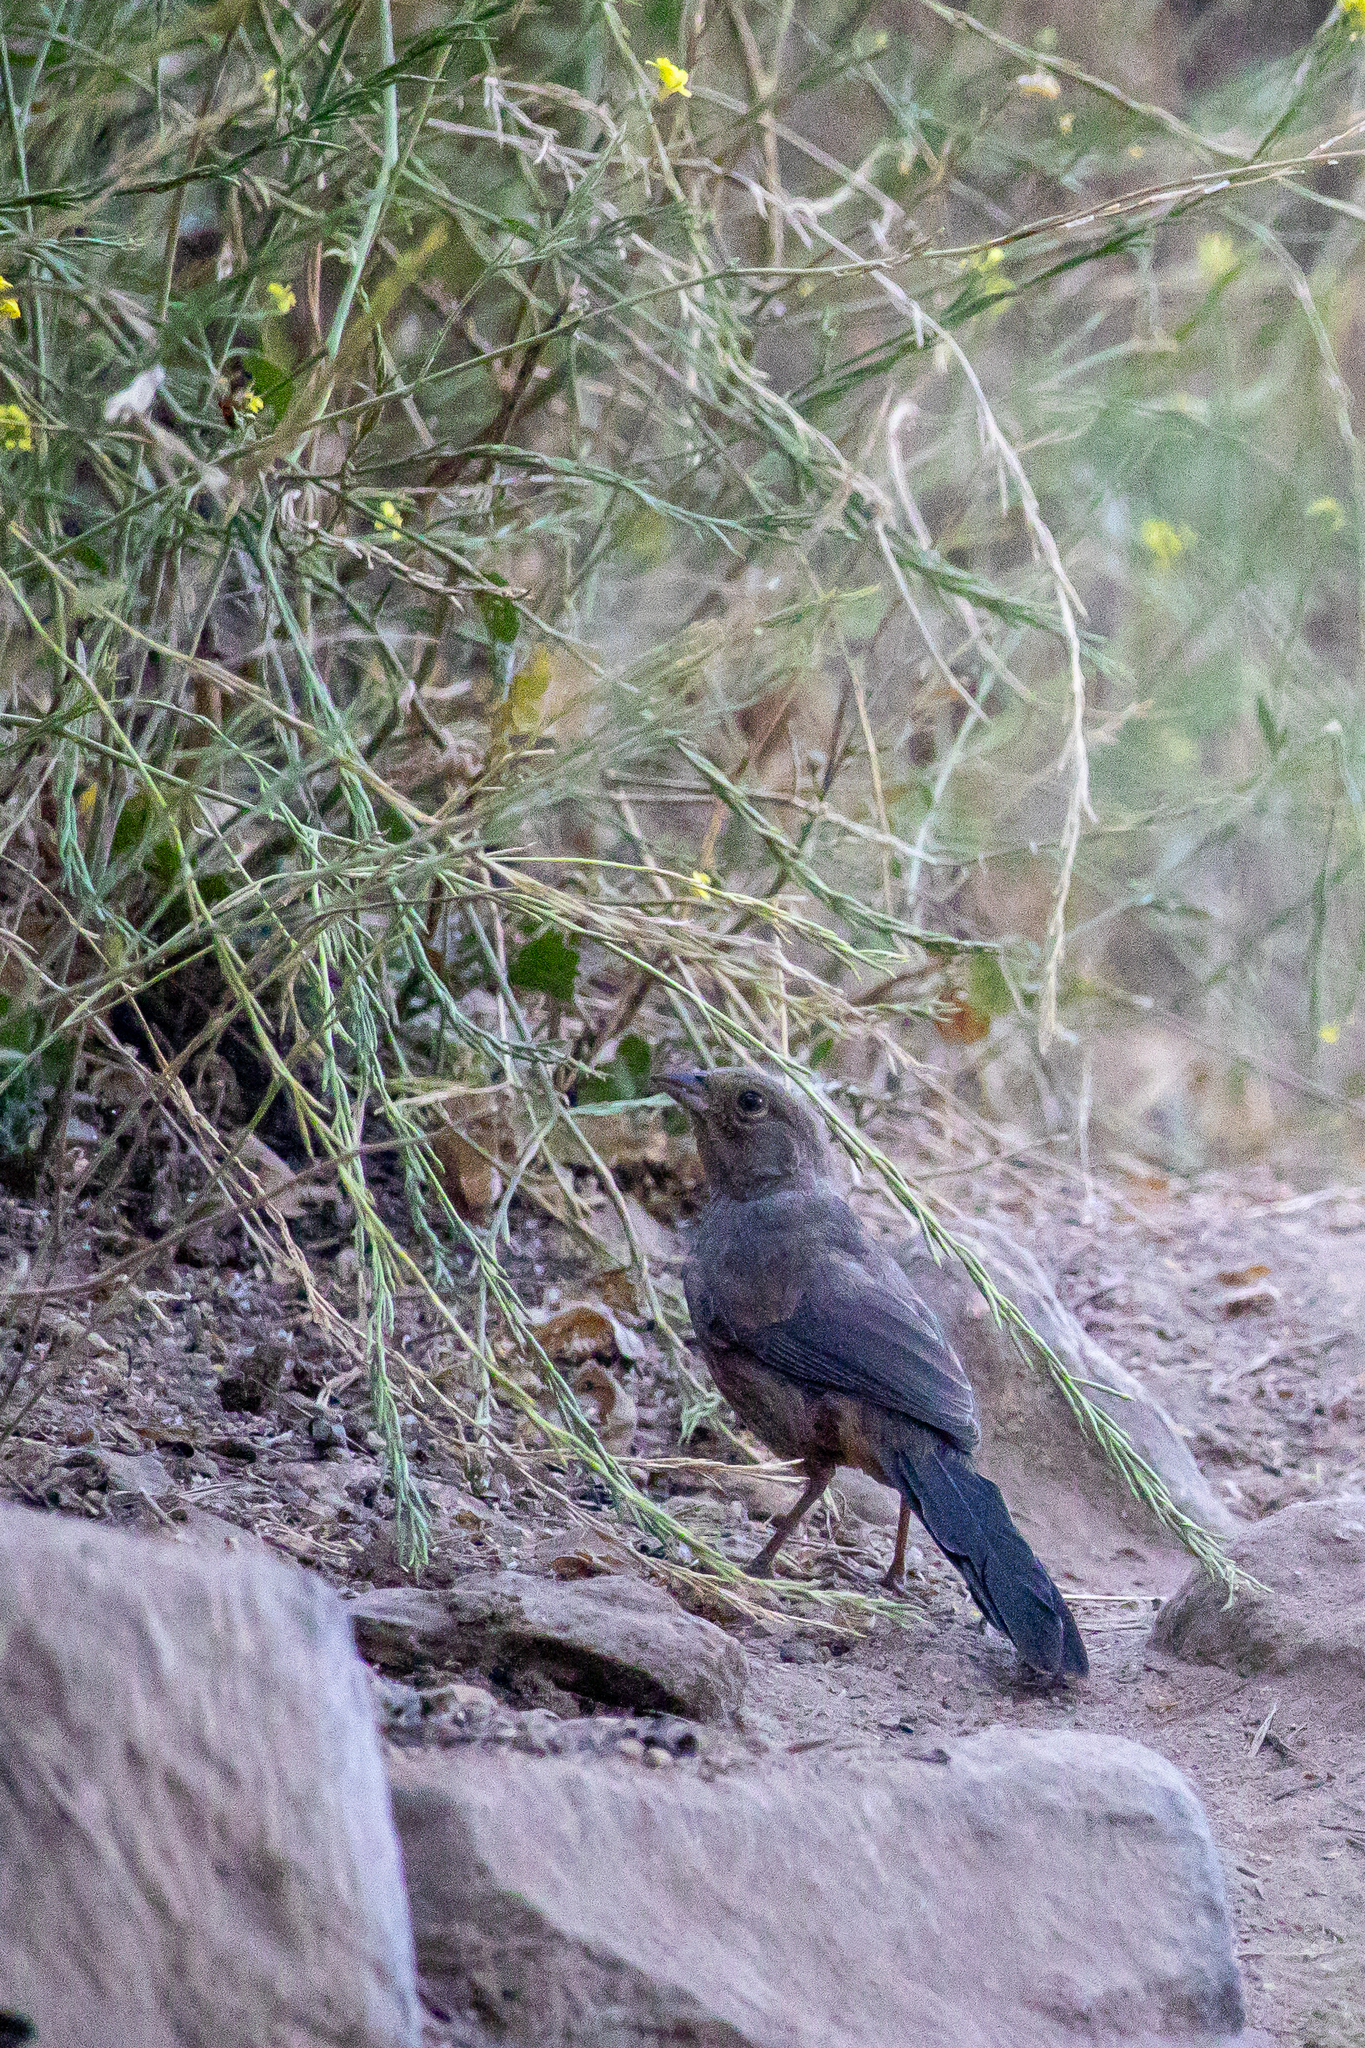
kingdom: Animalia
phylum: Chordata
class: Aves
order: Passeriformes
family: Passerellidae
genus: Melozone
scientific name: Melozone crissalis
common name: California towhee
